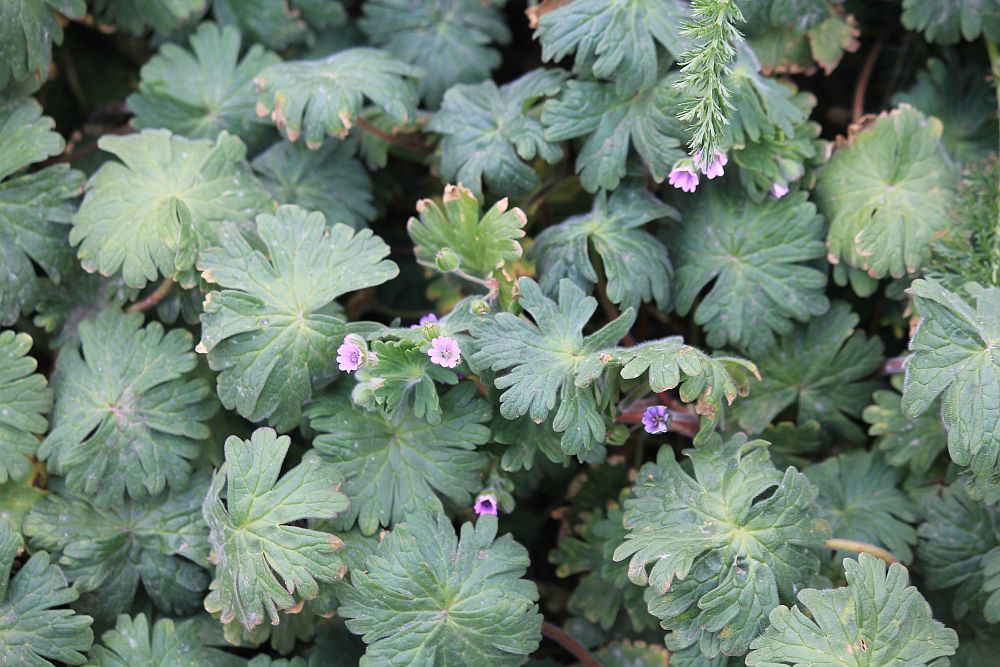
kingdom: Plantae
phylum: Tracheophyta
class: Magnoliopsida
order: Geraniales
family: Geraniaceae
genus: Geranium
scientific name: Geranium molle
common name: Dove's-foot crane's-bill
